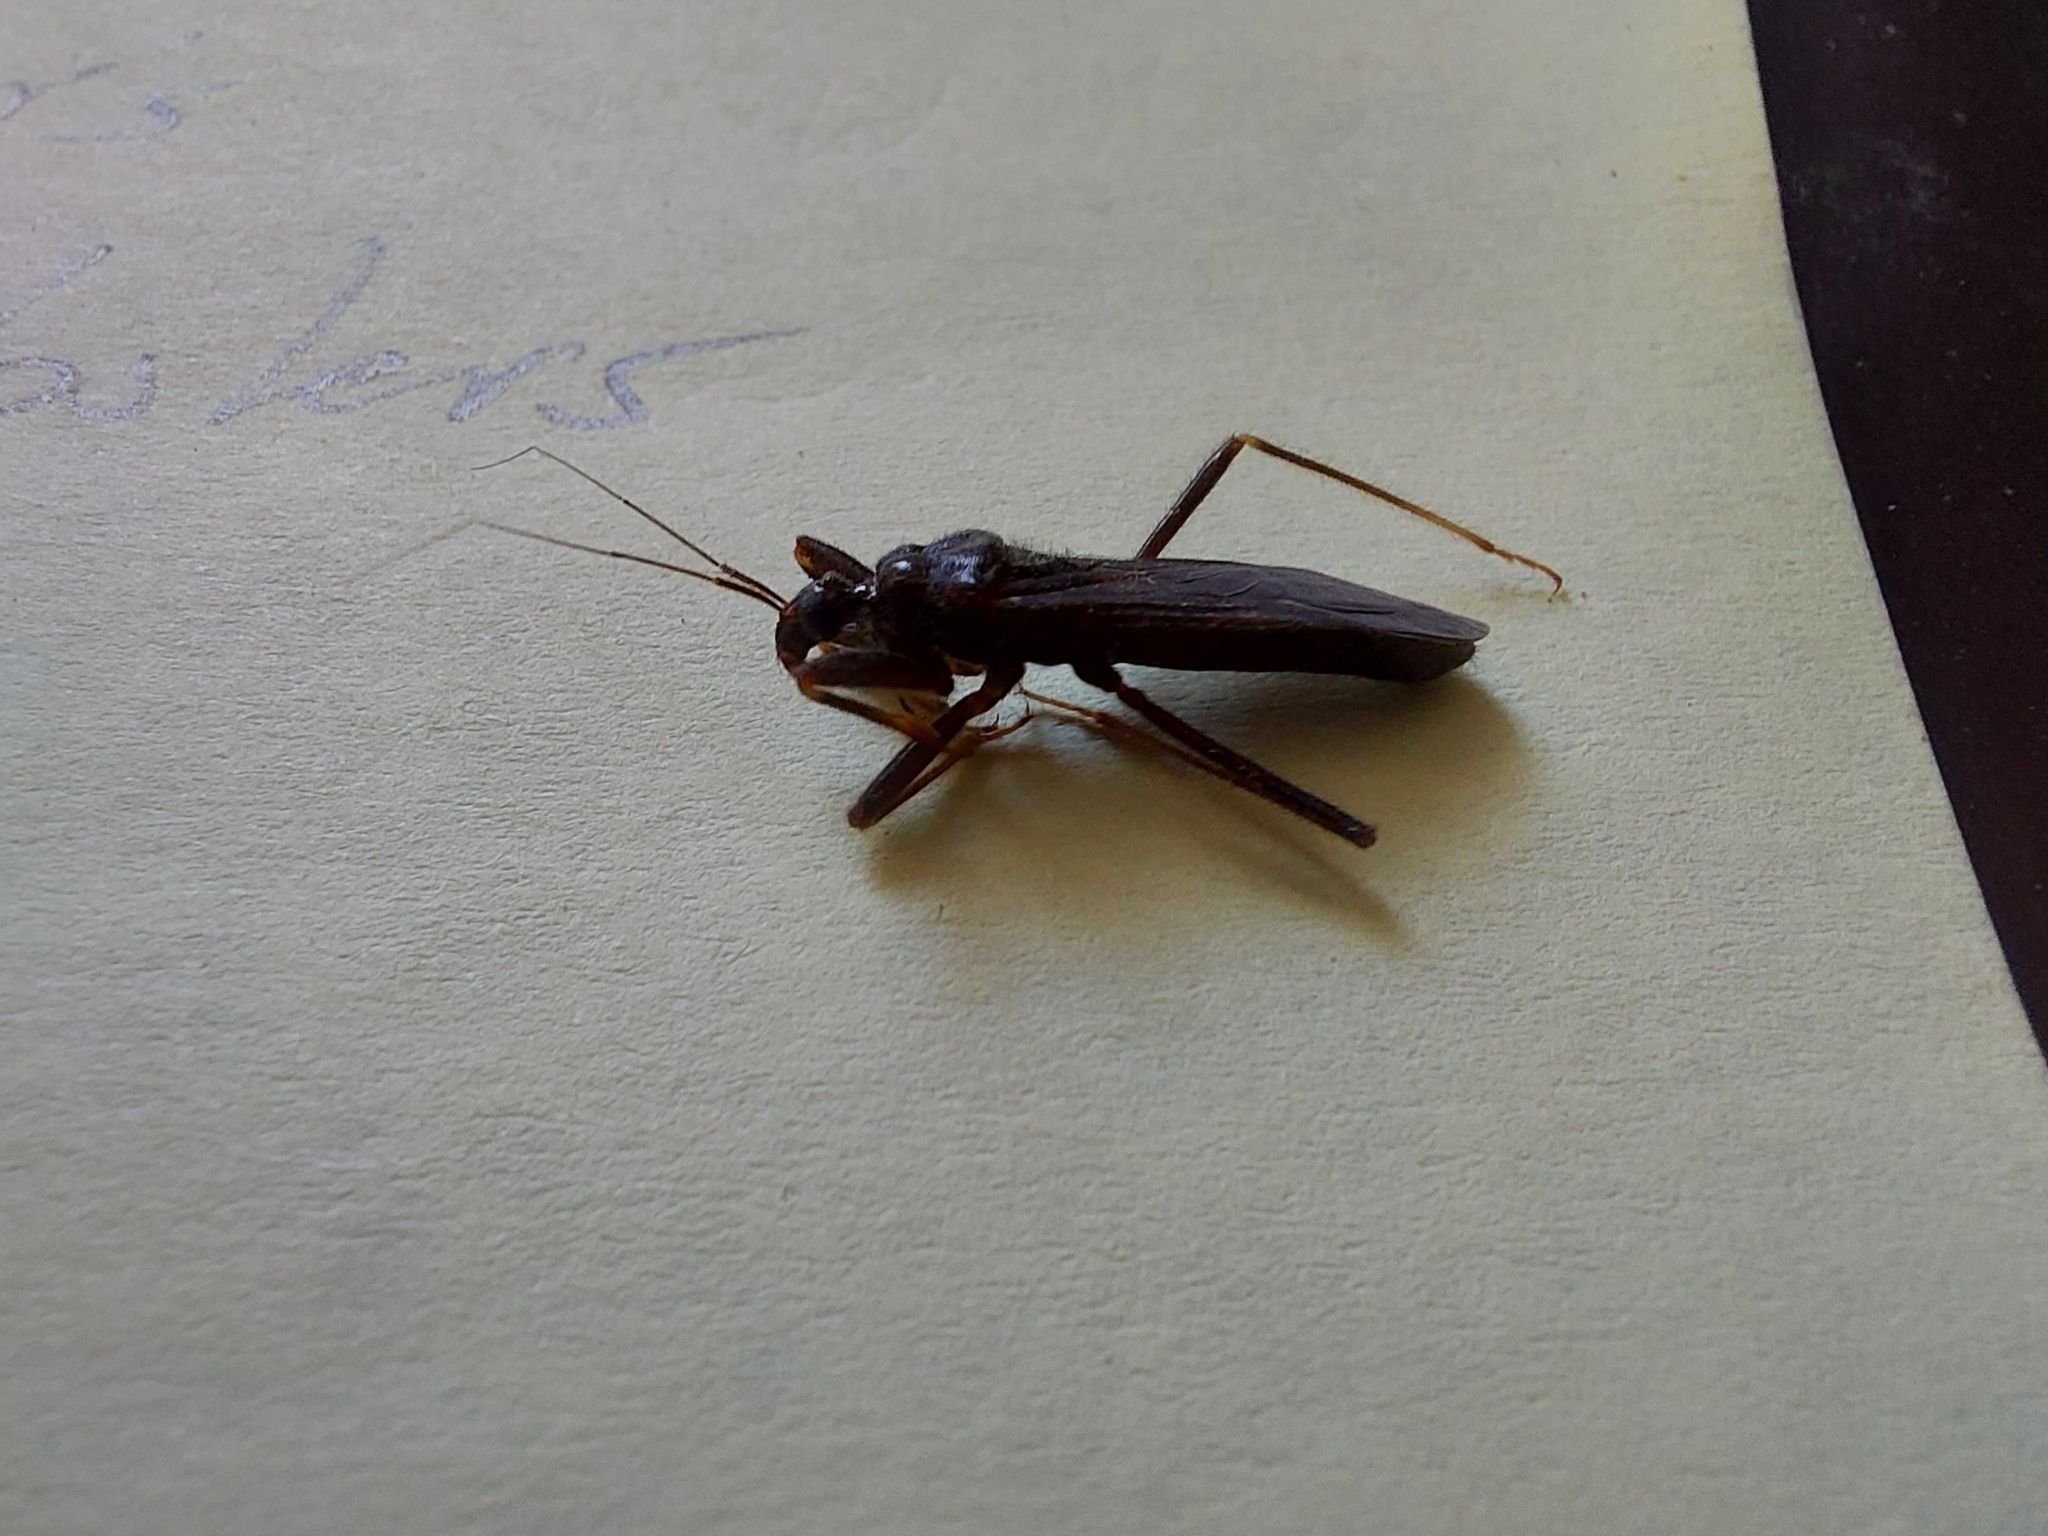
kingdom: Animalia
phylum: Arthropoda
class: Insecta
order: Hemiptera
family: Reduviidae
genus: Reduvius
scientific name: Reduvius personatus
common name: Masked hunter
